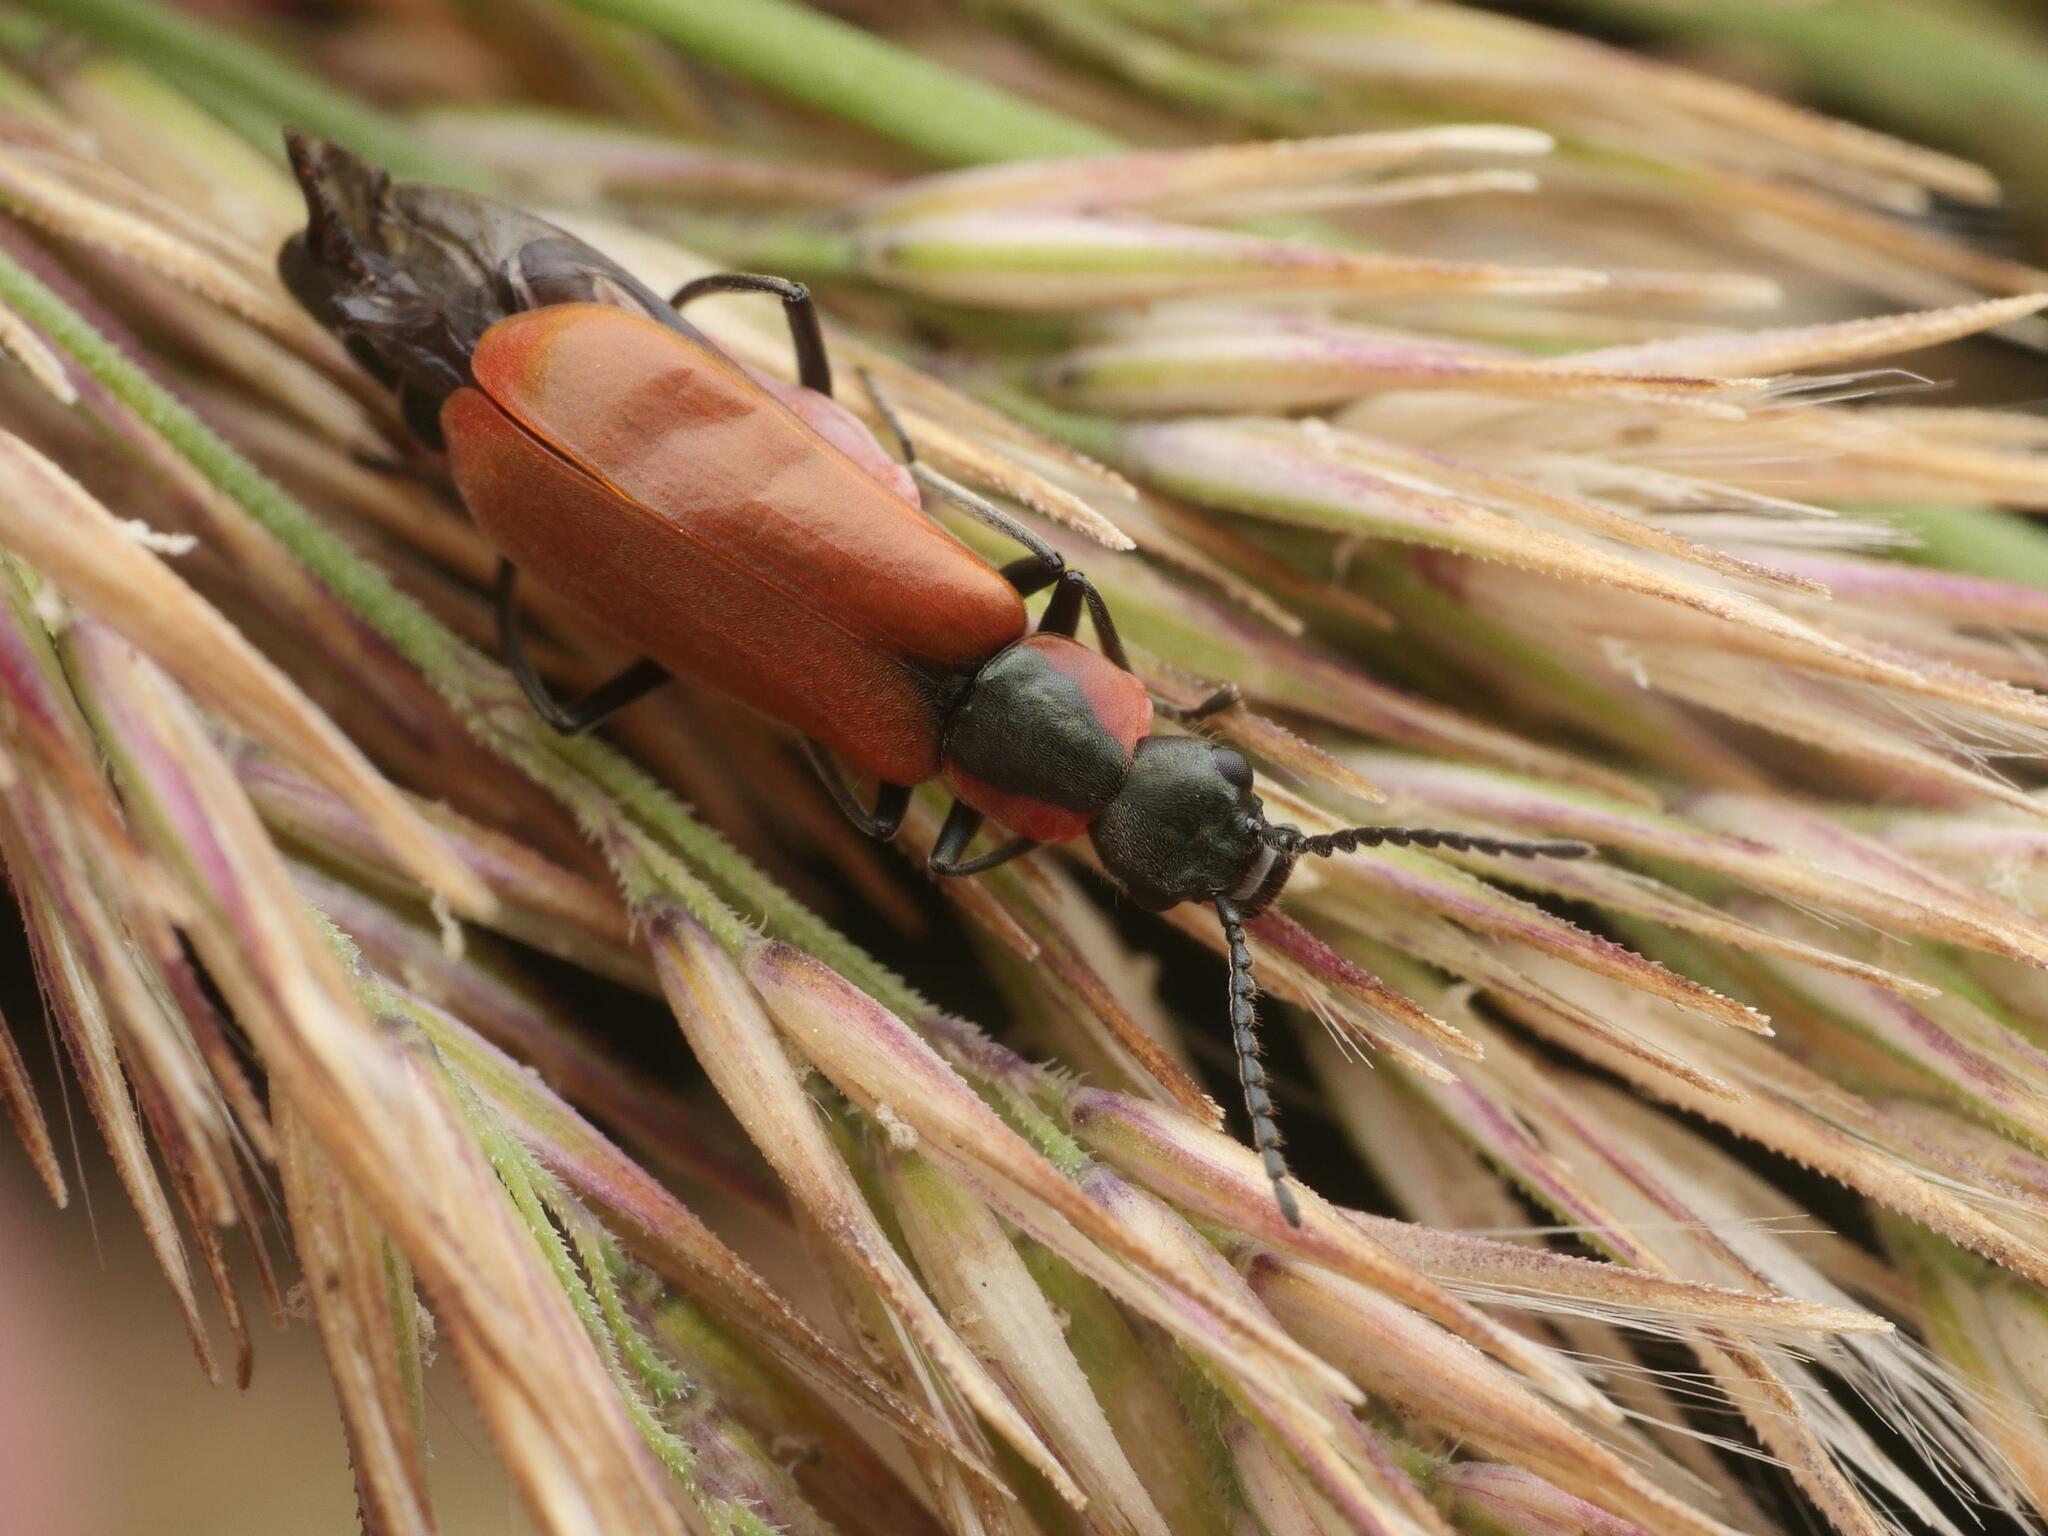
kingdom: Animalia
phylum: Arthropoda
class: Insecta
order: Coleoptera
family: Melyridae
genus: Anthocomus
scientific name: Anthocomus rufus
